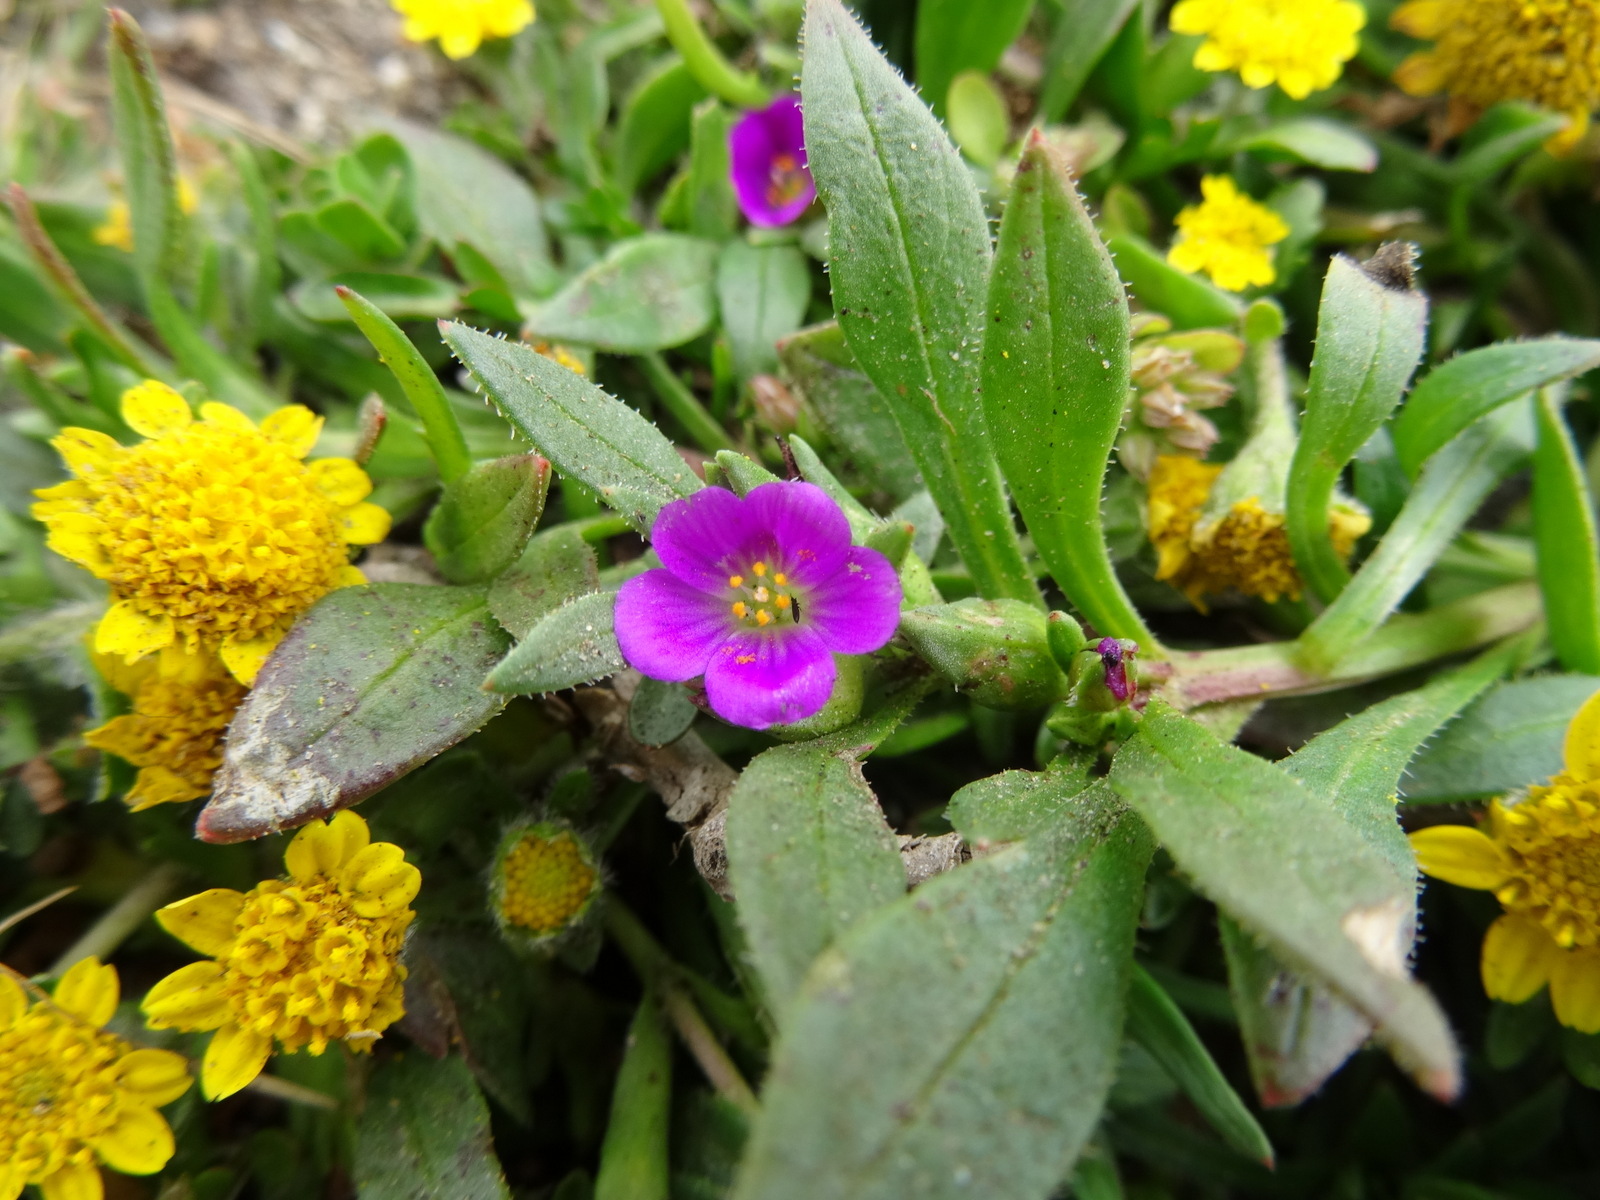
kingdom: Plantae
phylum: Tracheophyta
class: Magnoliopsida
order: Caryophyllales
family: Montiaceae
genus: Calandrinia
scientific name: Calandrinia menziesii
